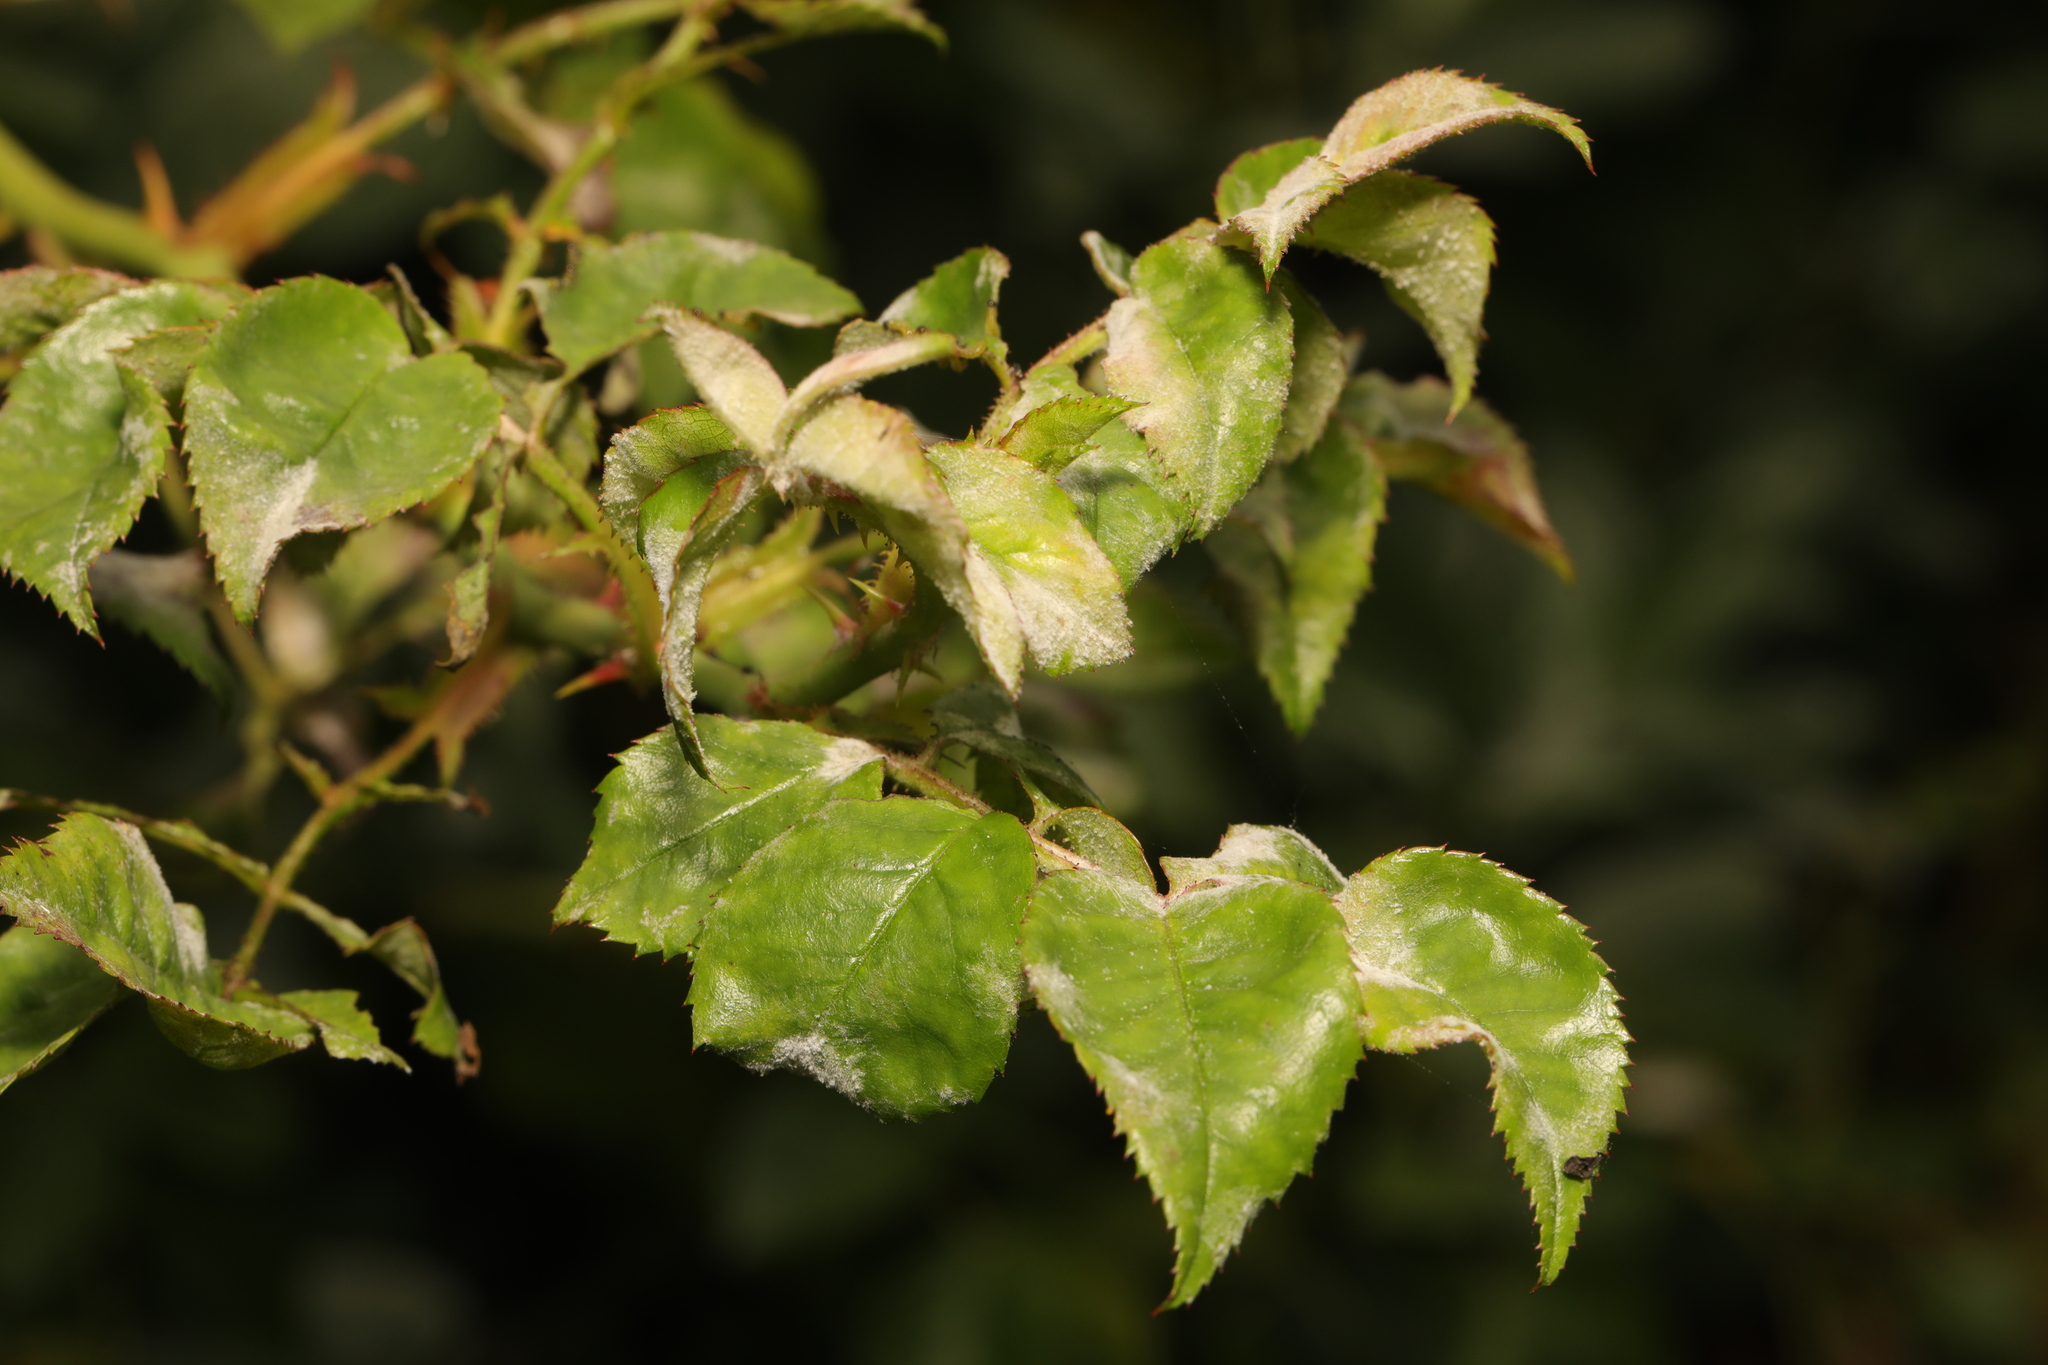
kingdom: Fungi
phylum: Ascomycota
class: Leotiomycetes
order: Helotiales
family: Erysiphaceae
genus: Podosphaera
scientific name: Podosphaera pannosa
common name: Rose mildew
